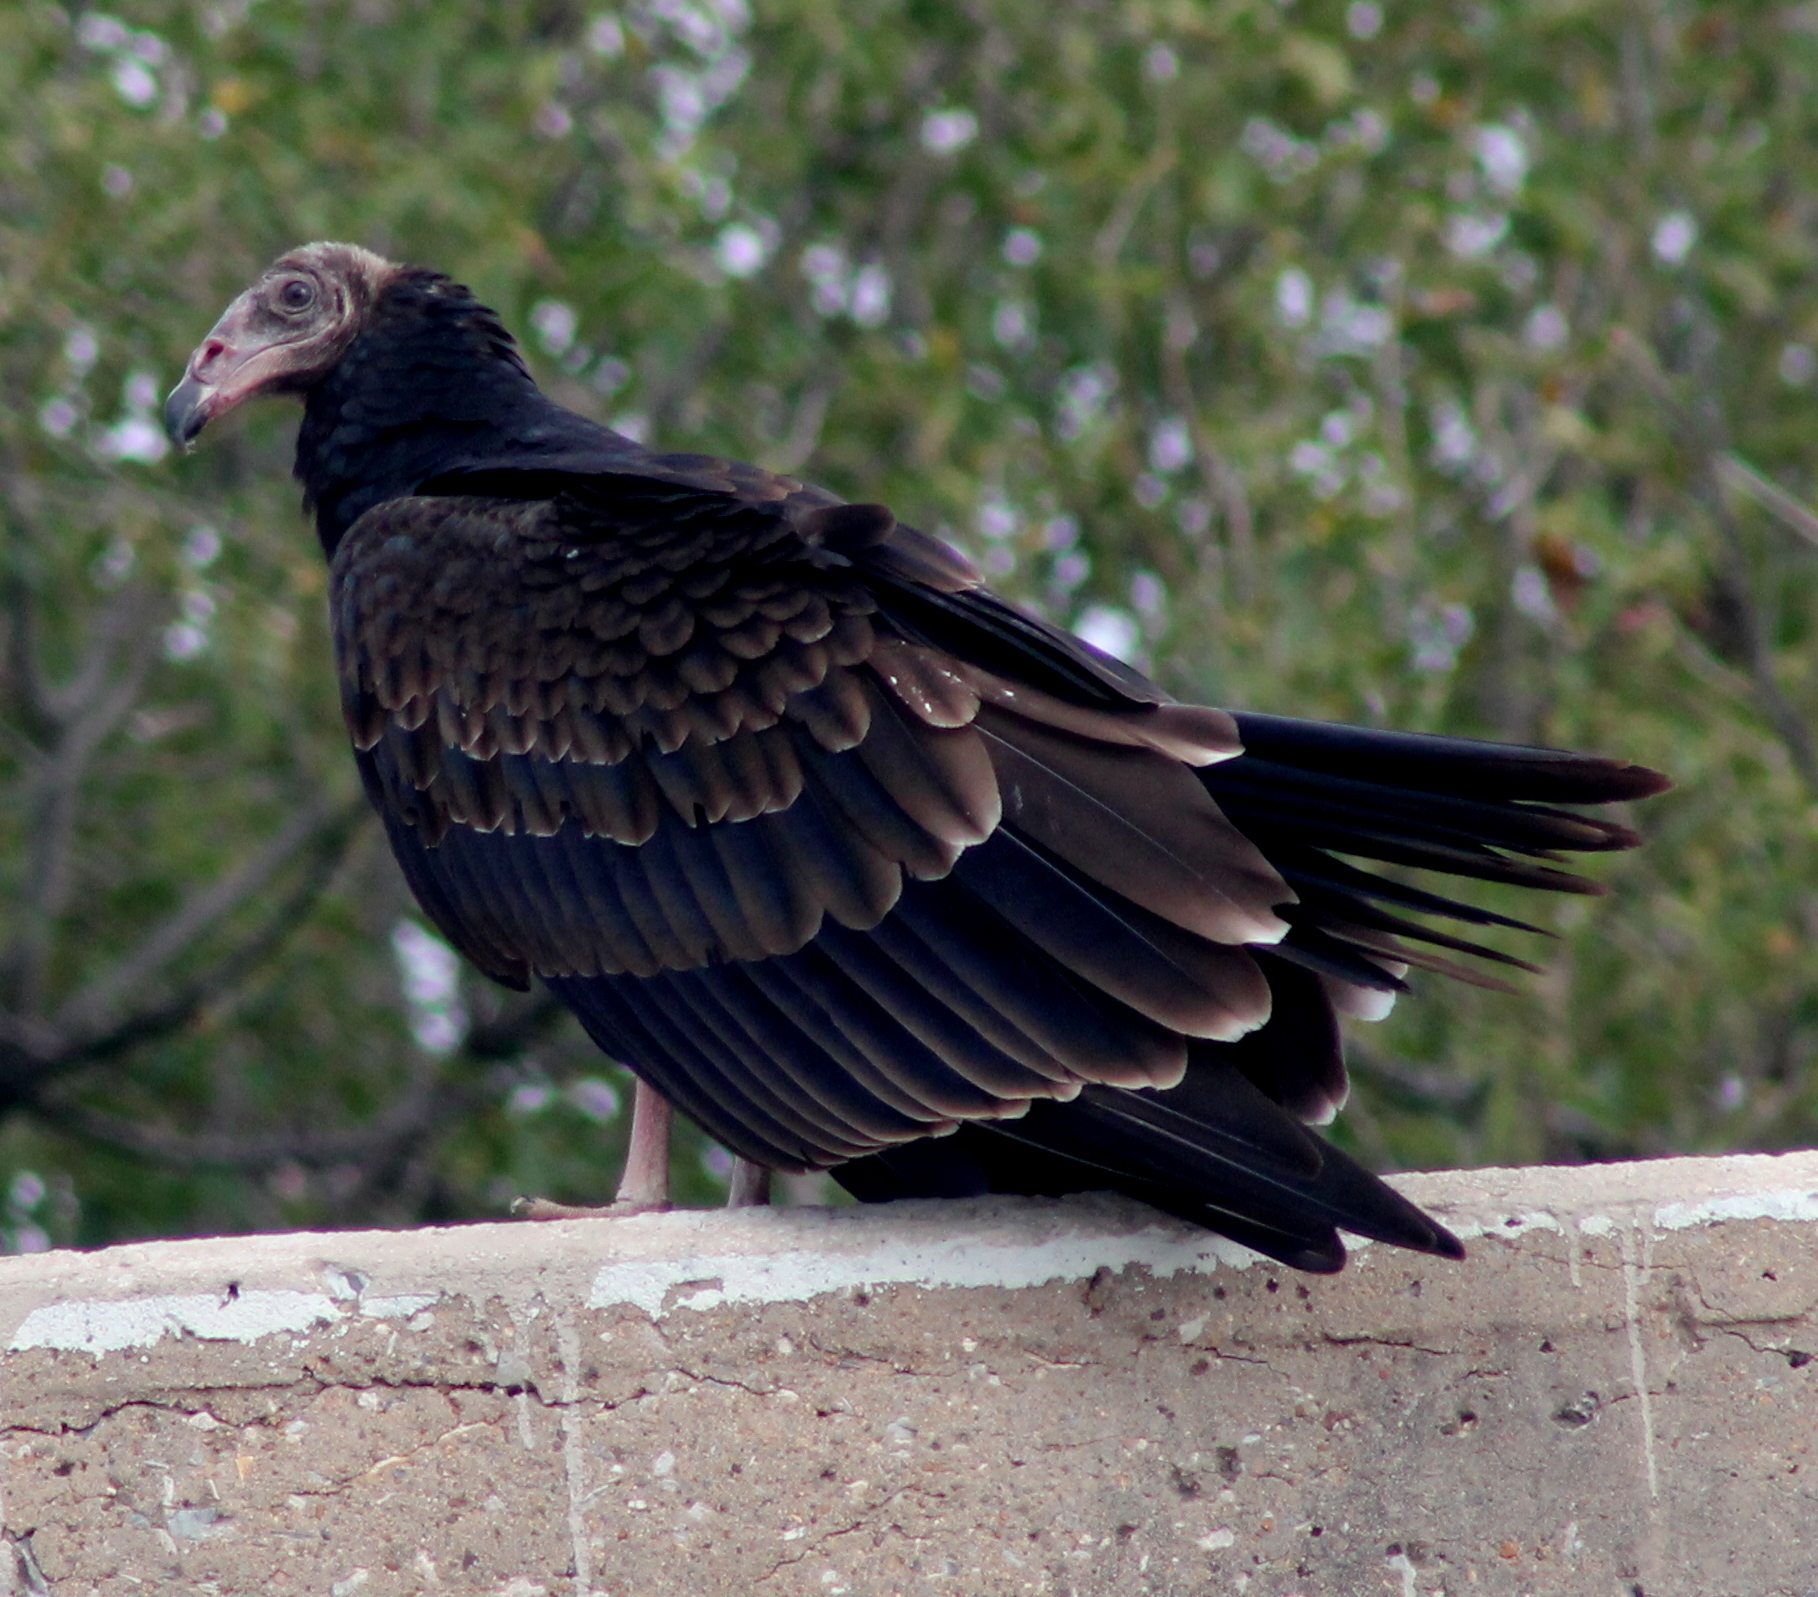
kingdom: Animalia
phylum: Chordata
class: Aves
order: Accipitriformes
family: Cathartidae
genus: Cathartes
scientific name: Cathartes aura
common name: Turkey vulture
